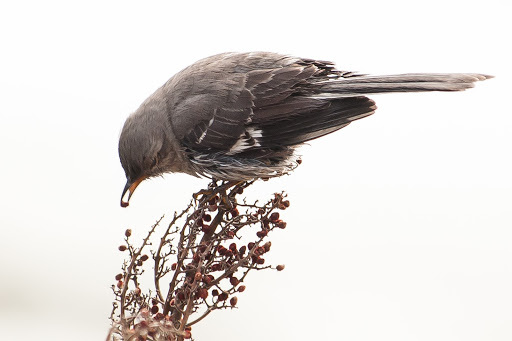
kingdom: Animalia
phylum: Chordata
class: Aves
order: Passeriformes
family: Mimidae
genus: Mimus
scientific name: Mimus polyglottos
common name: Northern mockingbird
